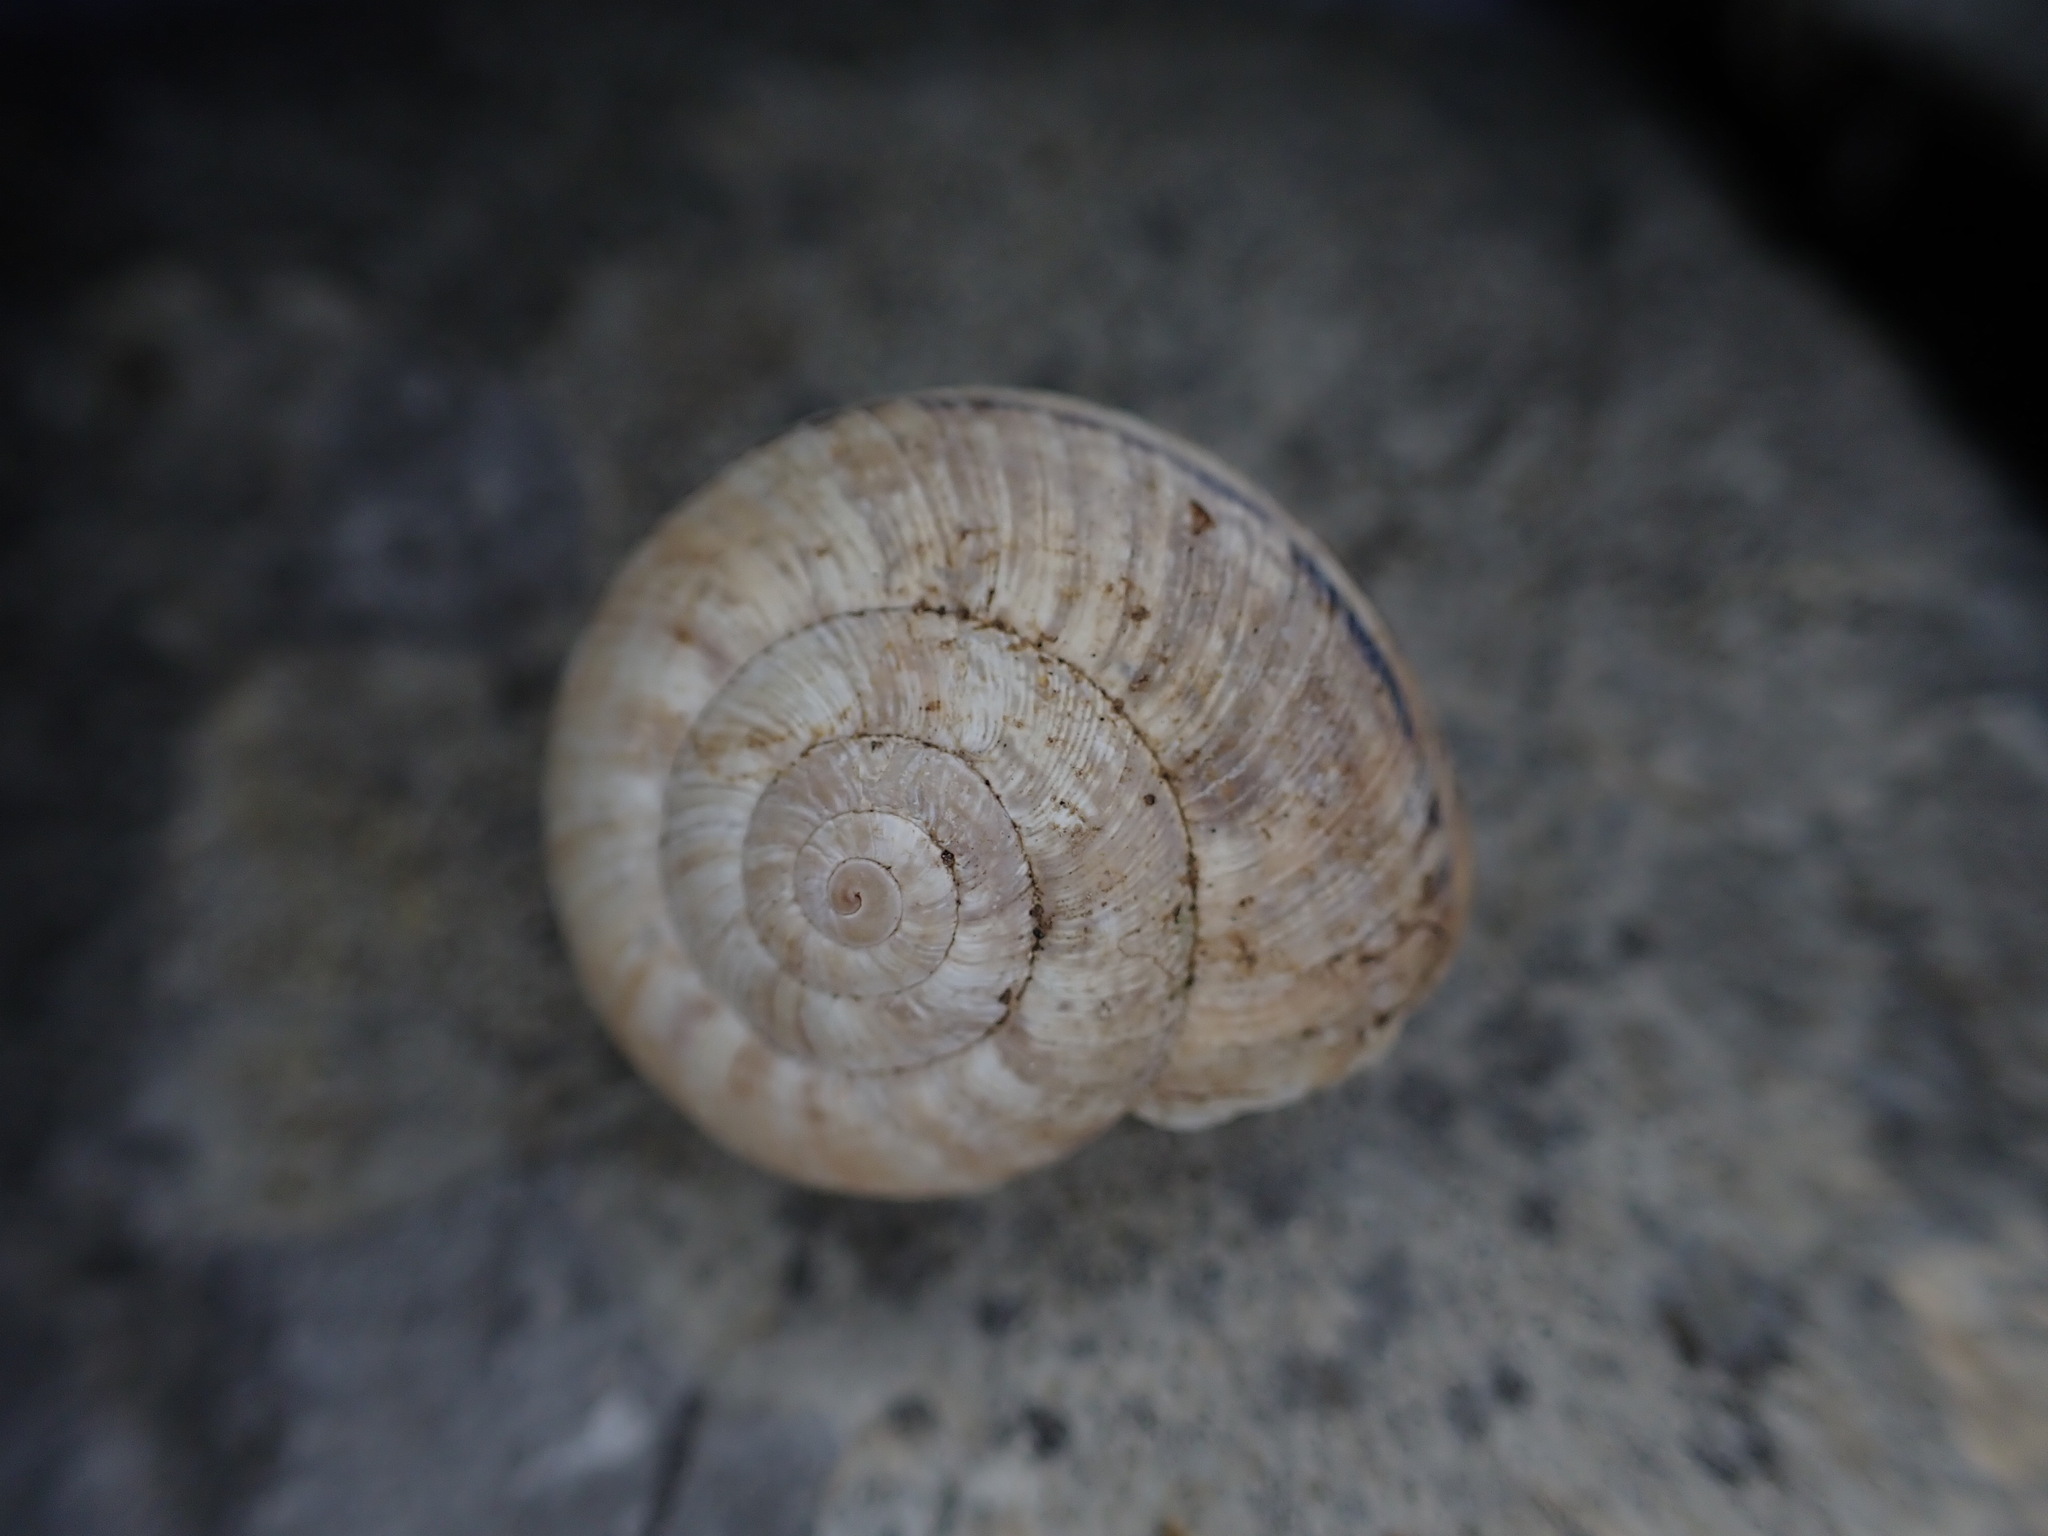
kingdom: Animalia
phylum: Mollusca
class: Gastropoda
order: Stylommatophora
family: Geomitridae
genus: Xerosecta
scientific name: Xerosecta cespitum
